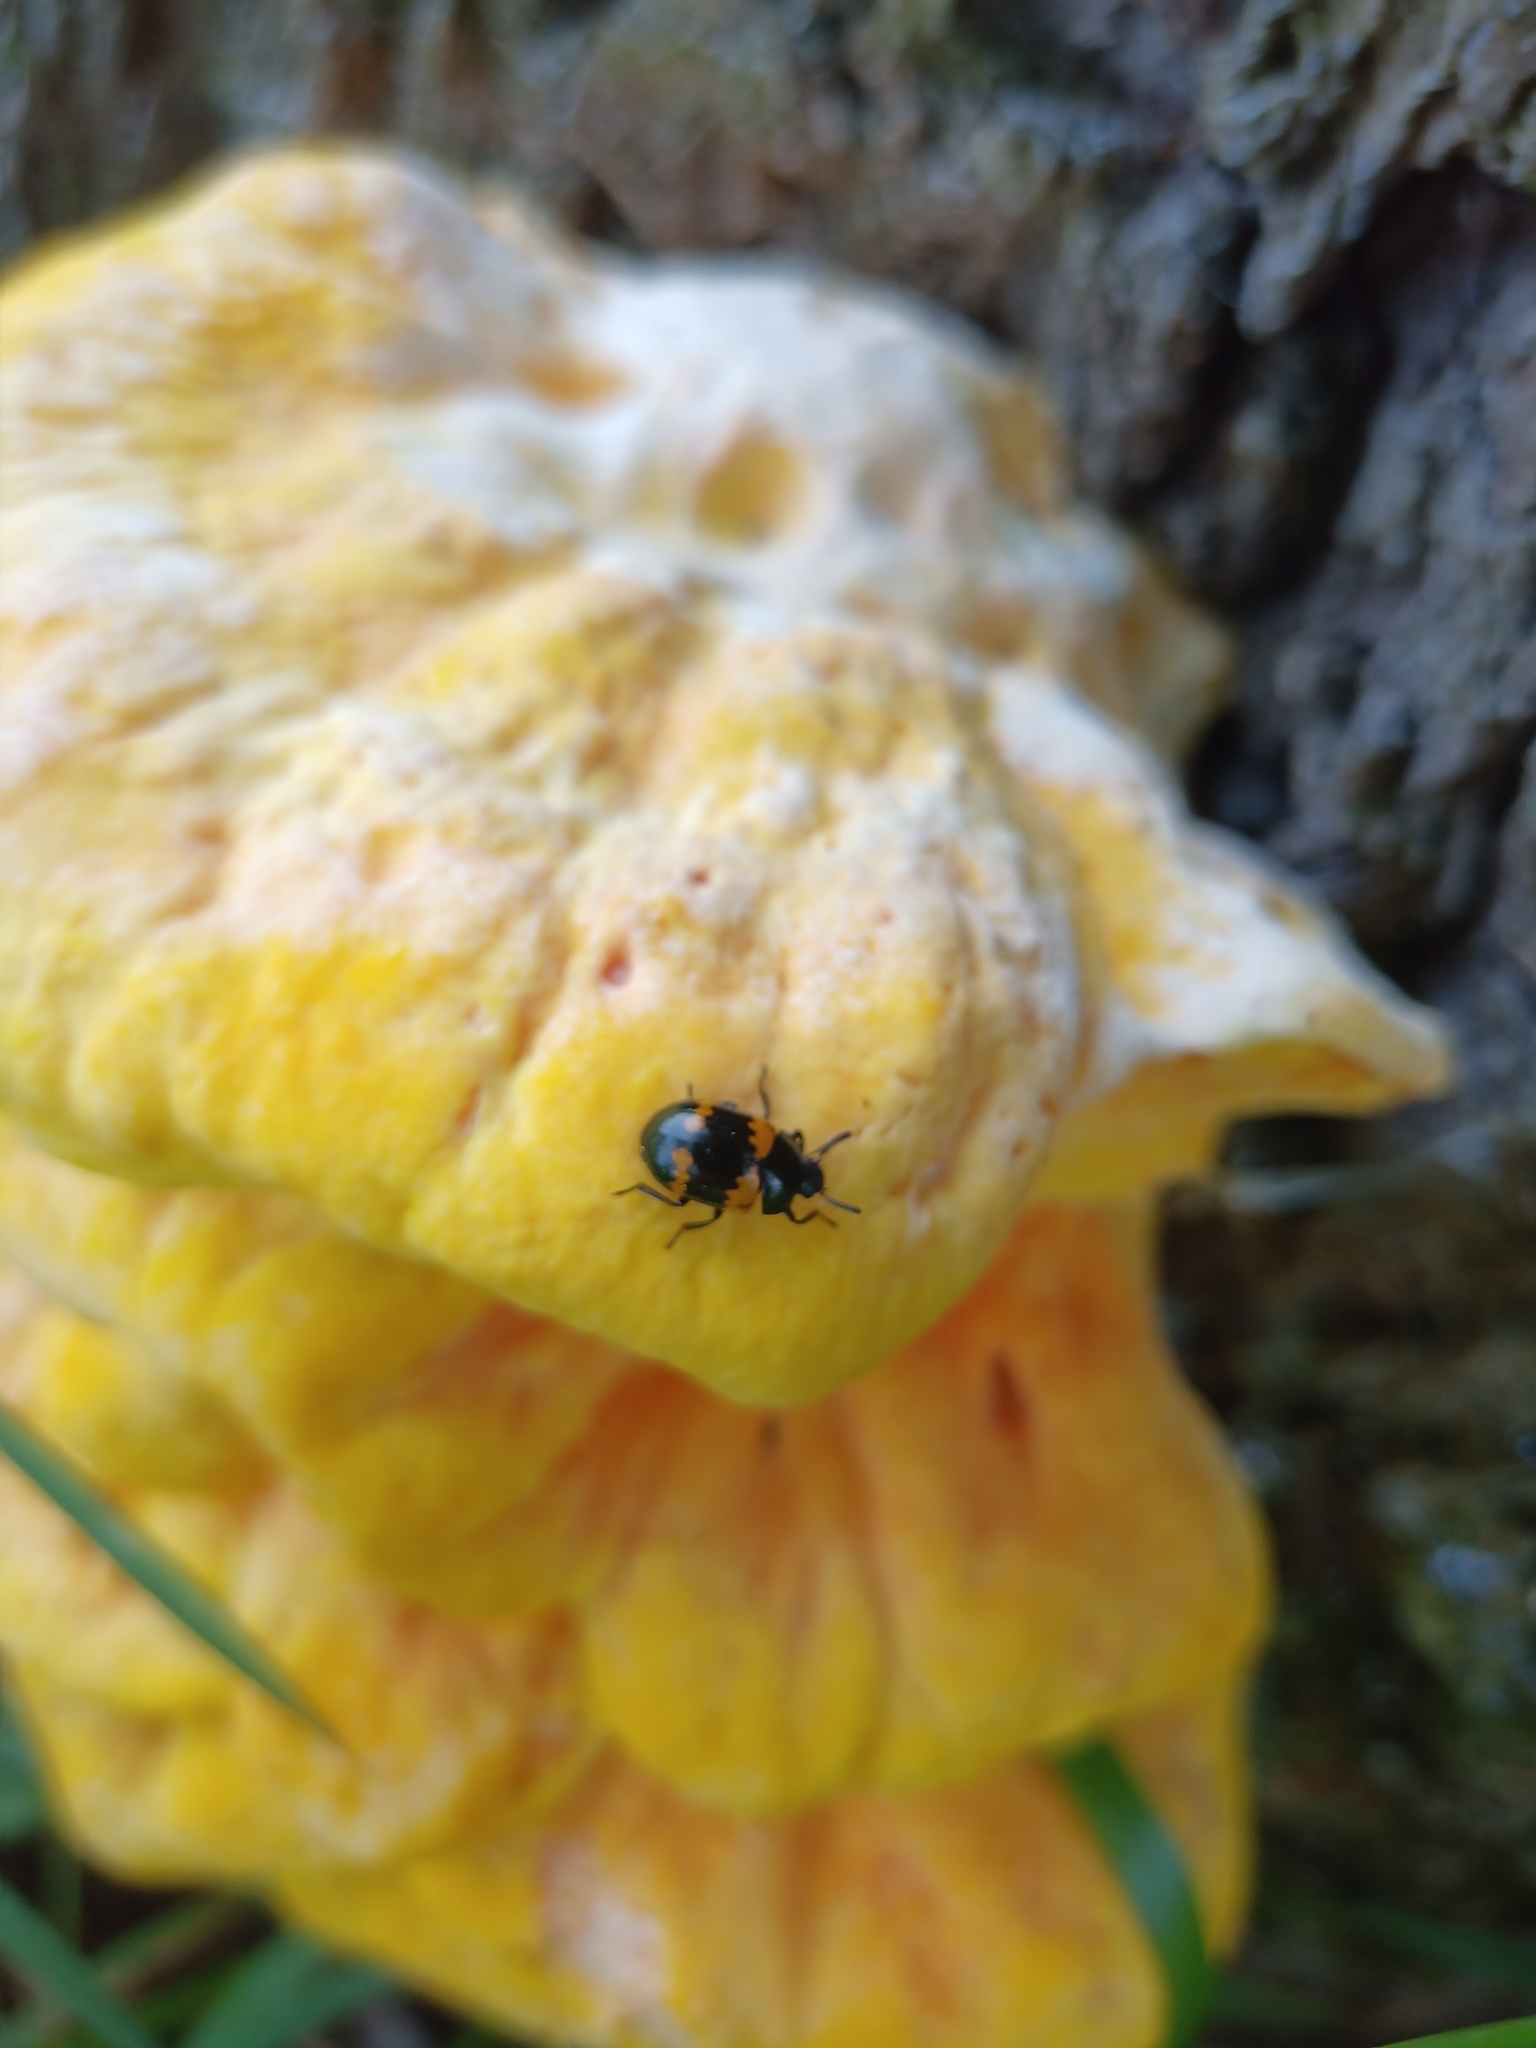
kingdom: Animalia
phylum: Arthropoda
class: Insecta
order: Coleoptera
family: Tenebrionidae
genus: Diaperis
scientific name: Diaperis boleti
